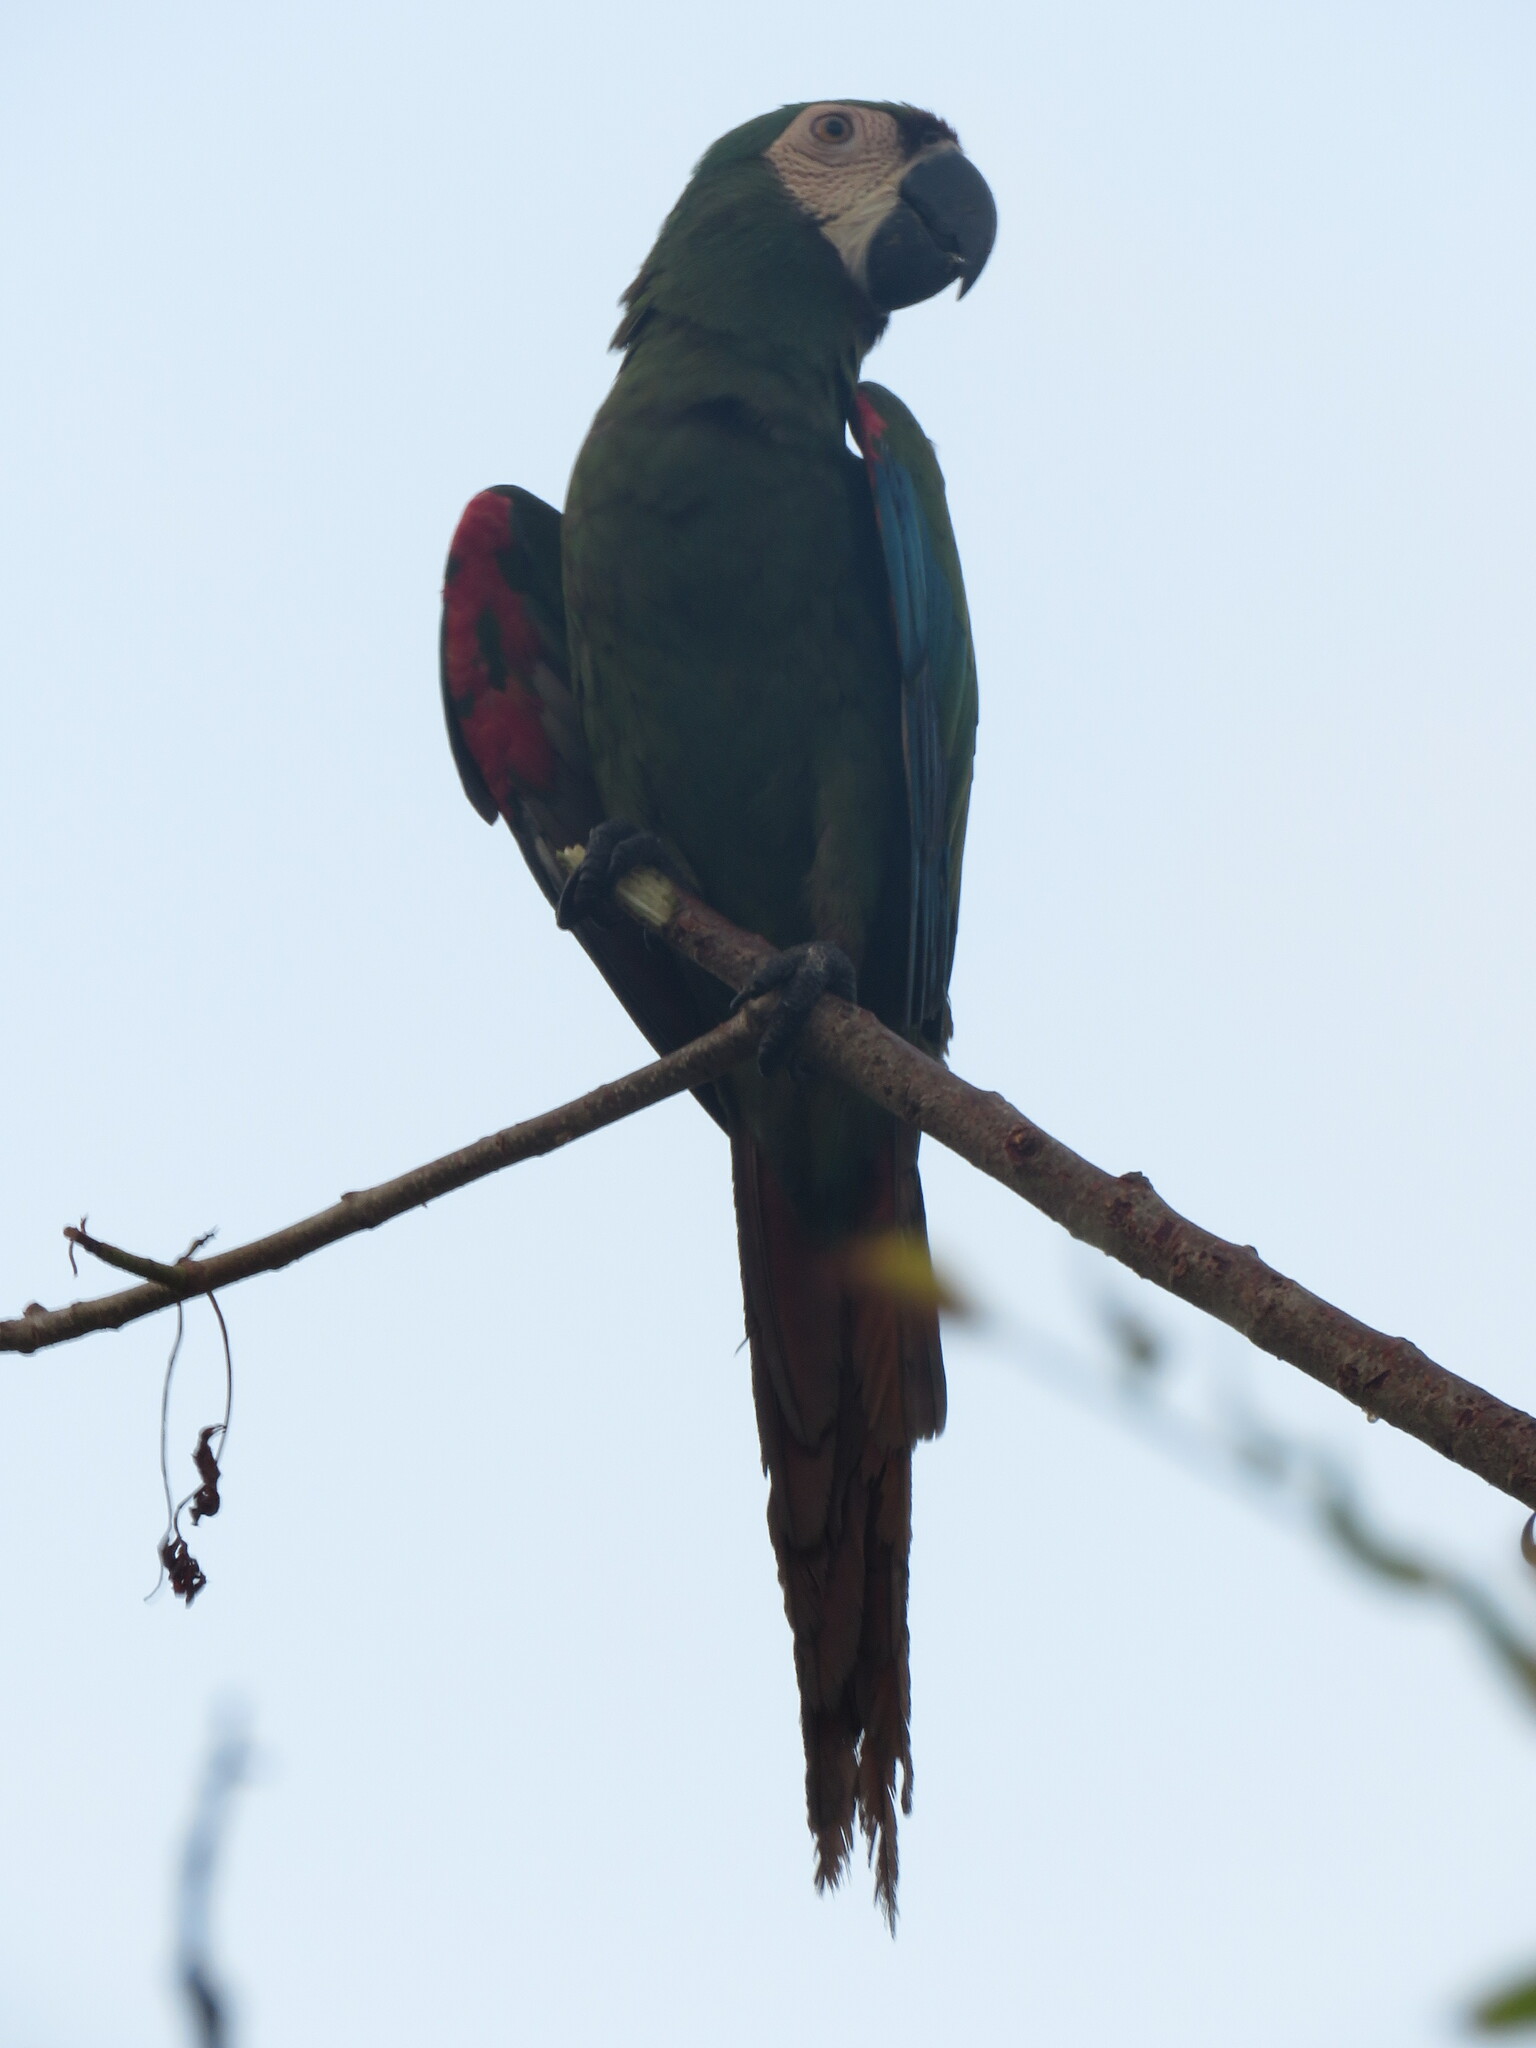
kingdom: Animalia
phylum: Chordata
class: Aves
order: Psittaciformes
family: Psittacidae
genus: Ara
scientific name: Ara severus
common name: Chestnut-fronted macaw
